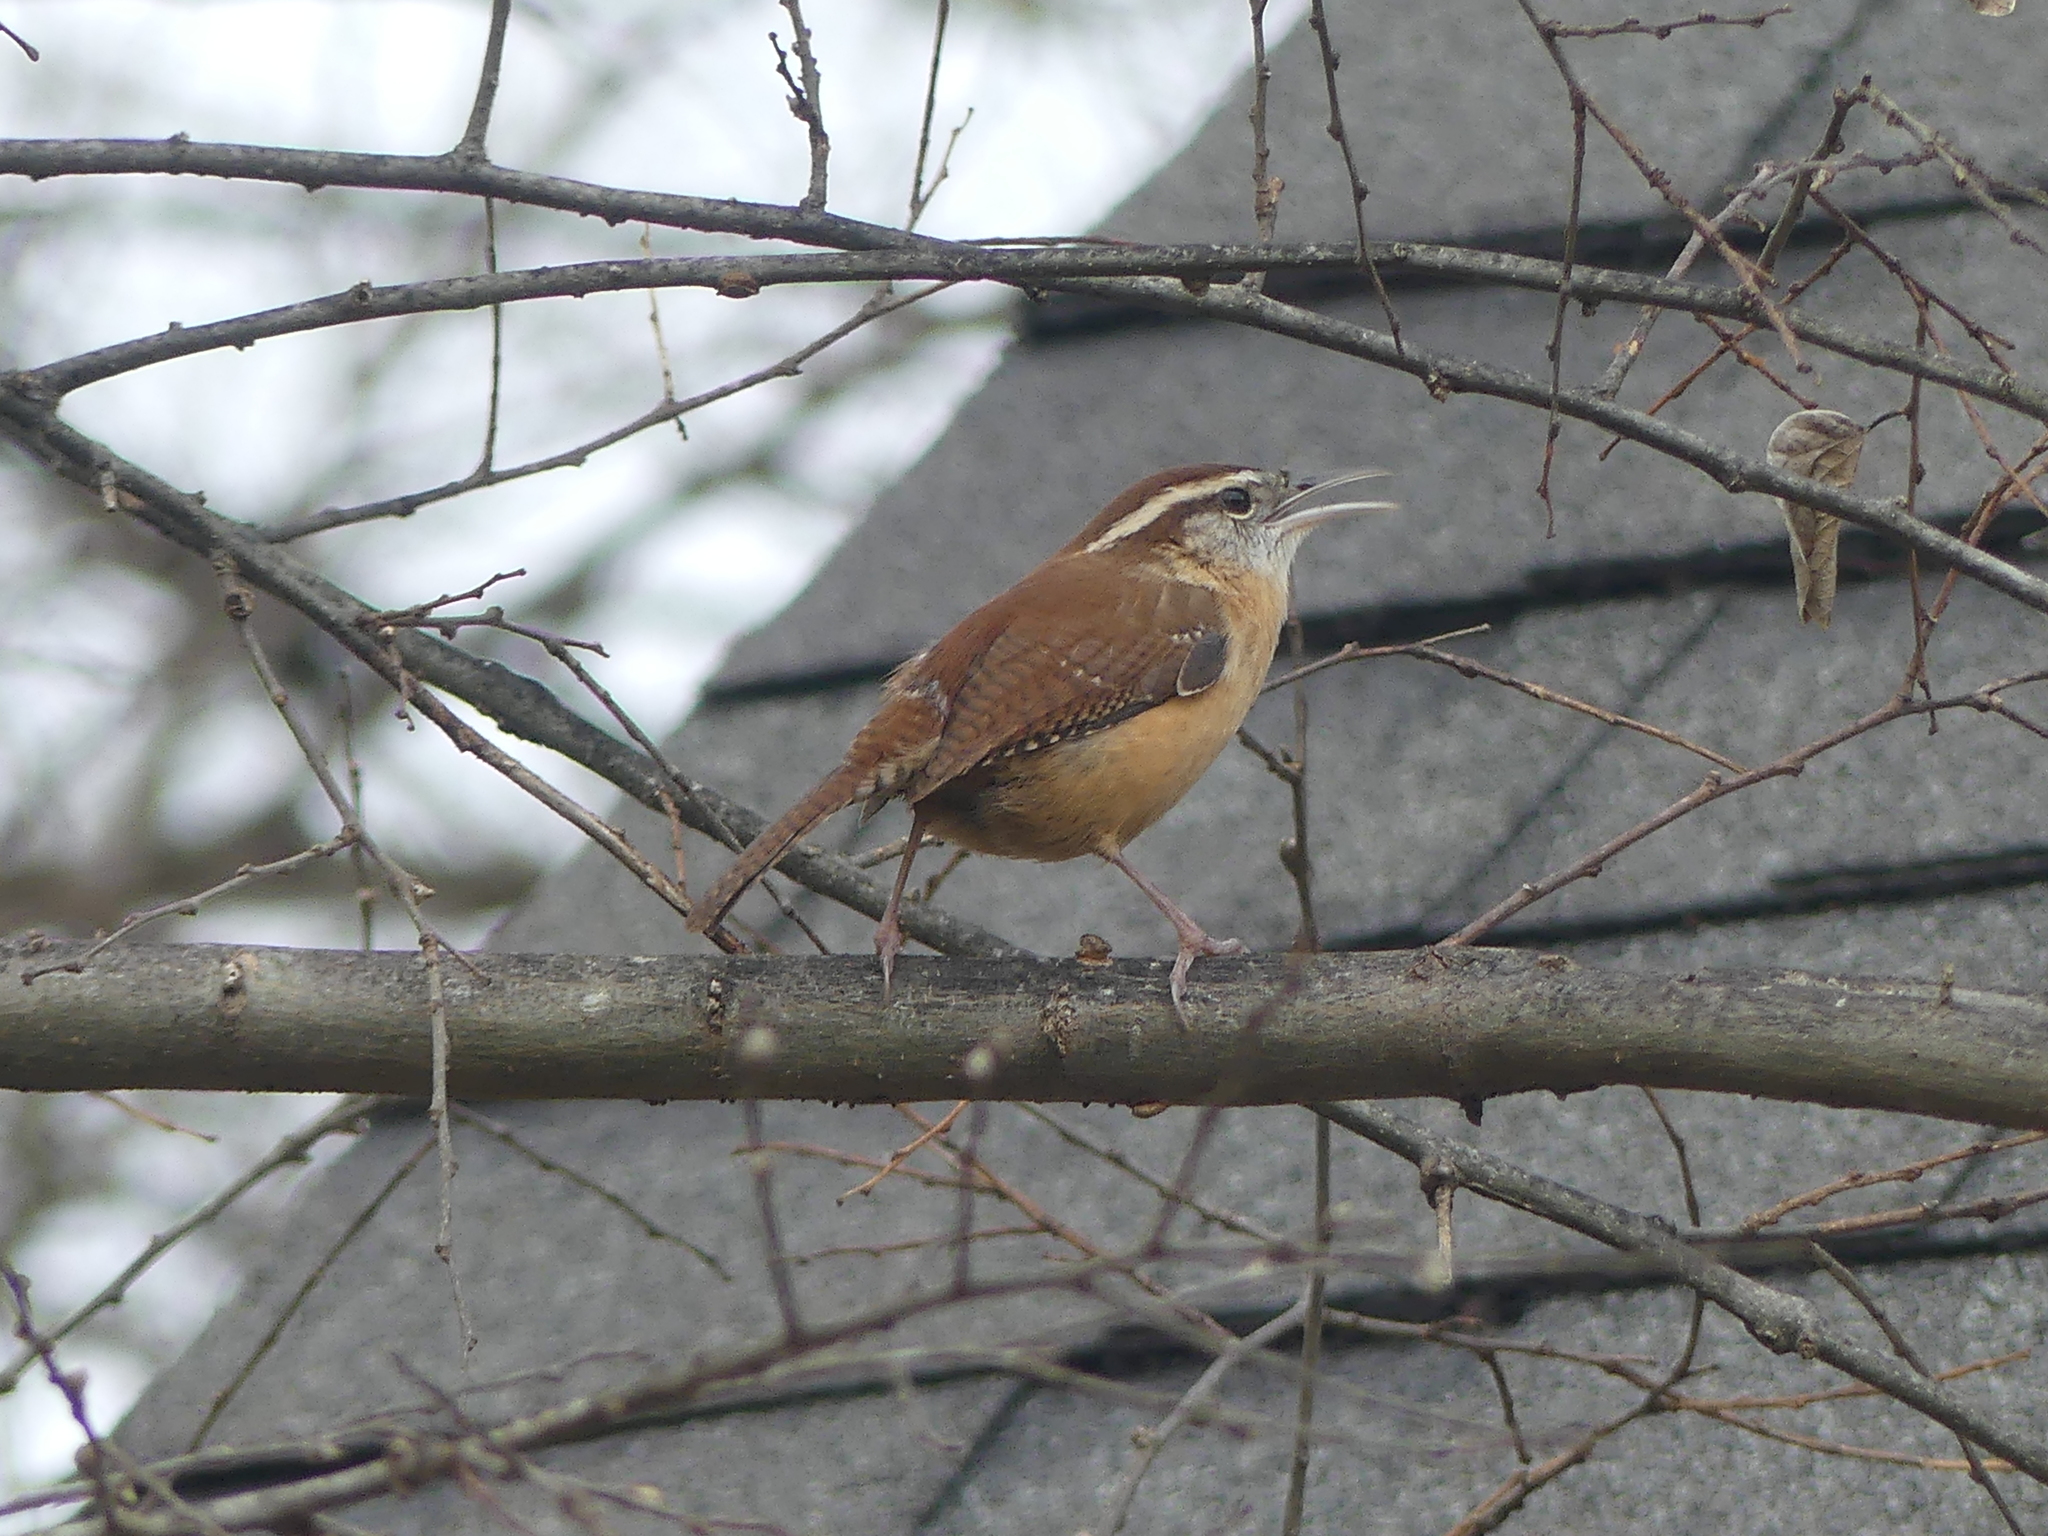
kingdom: Animalia
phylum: Chordata
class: Aves
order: Passeriformes
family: Troglodytidae
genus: Thryothorus
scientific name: Thryothorus ludovicianus
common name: Carolina wren
